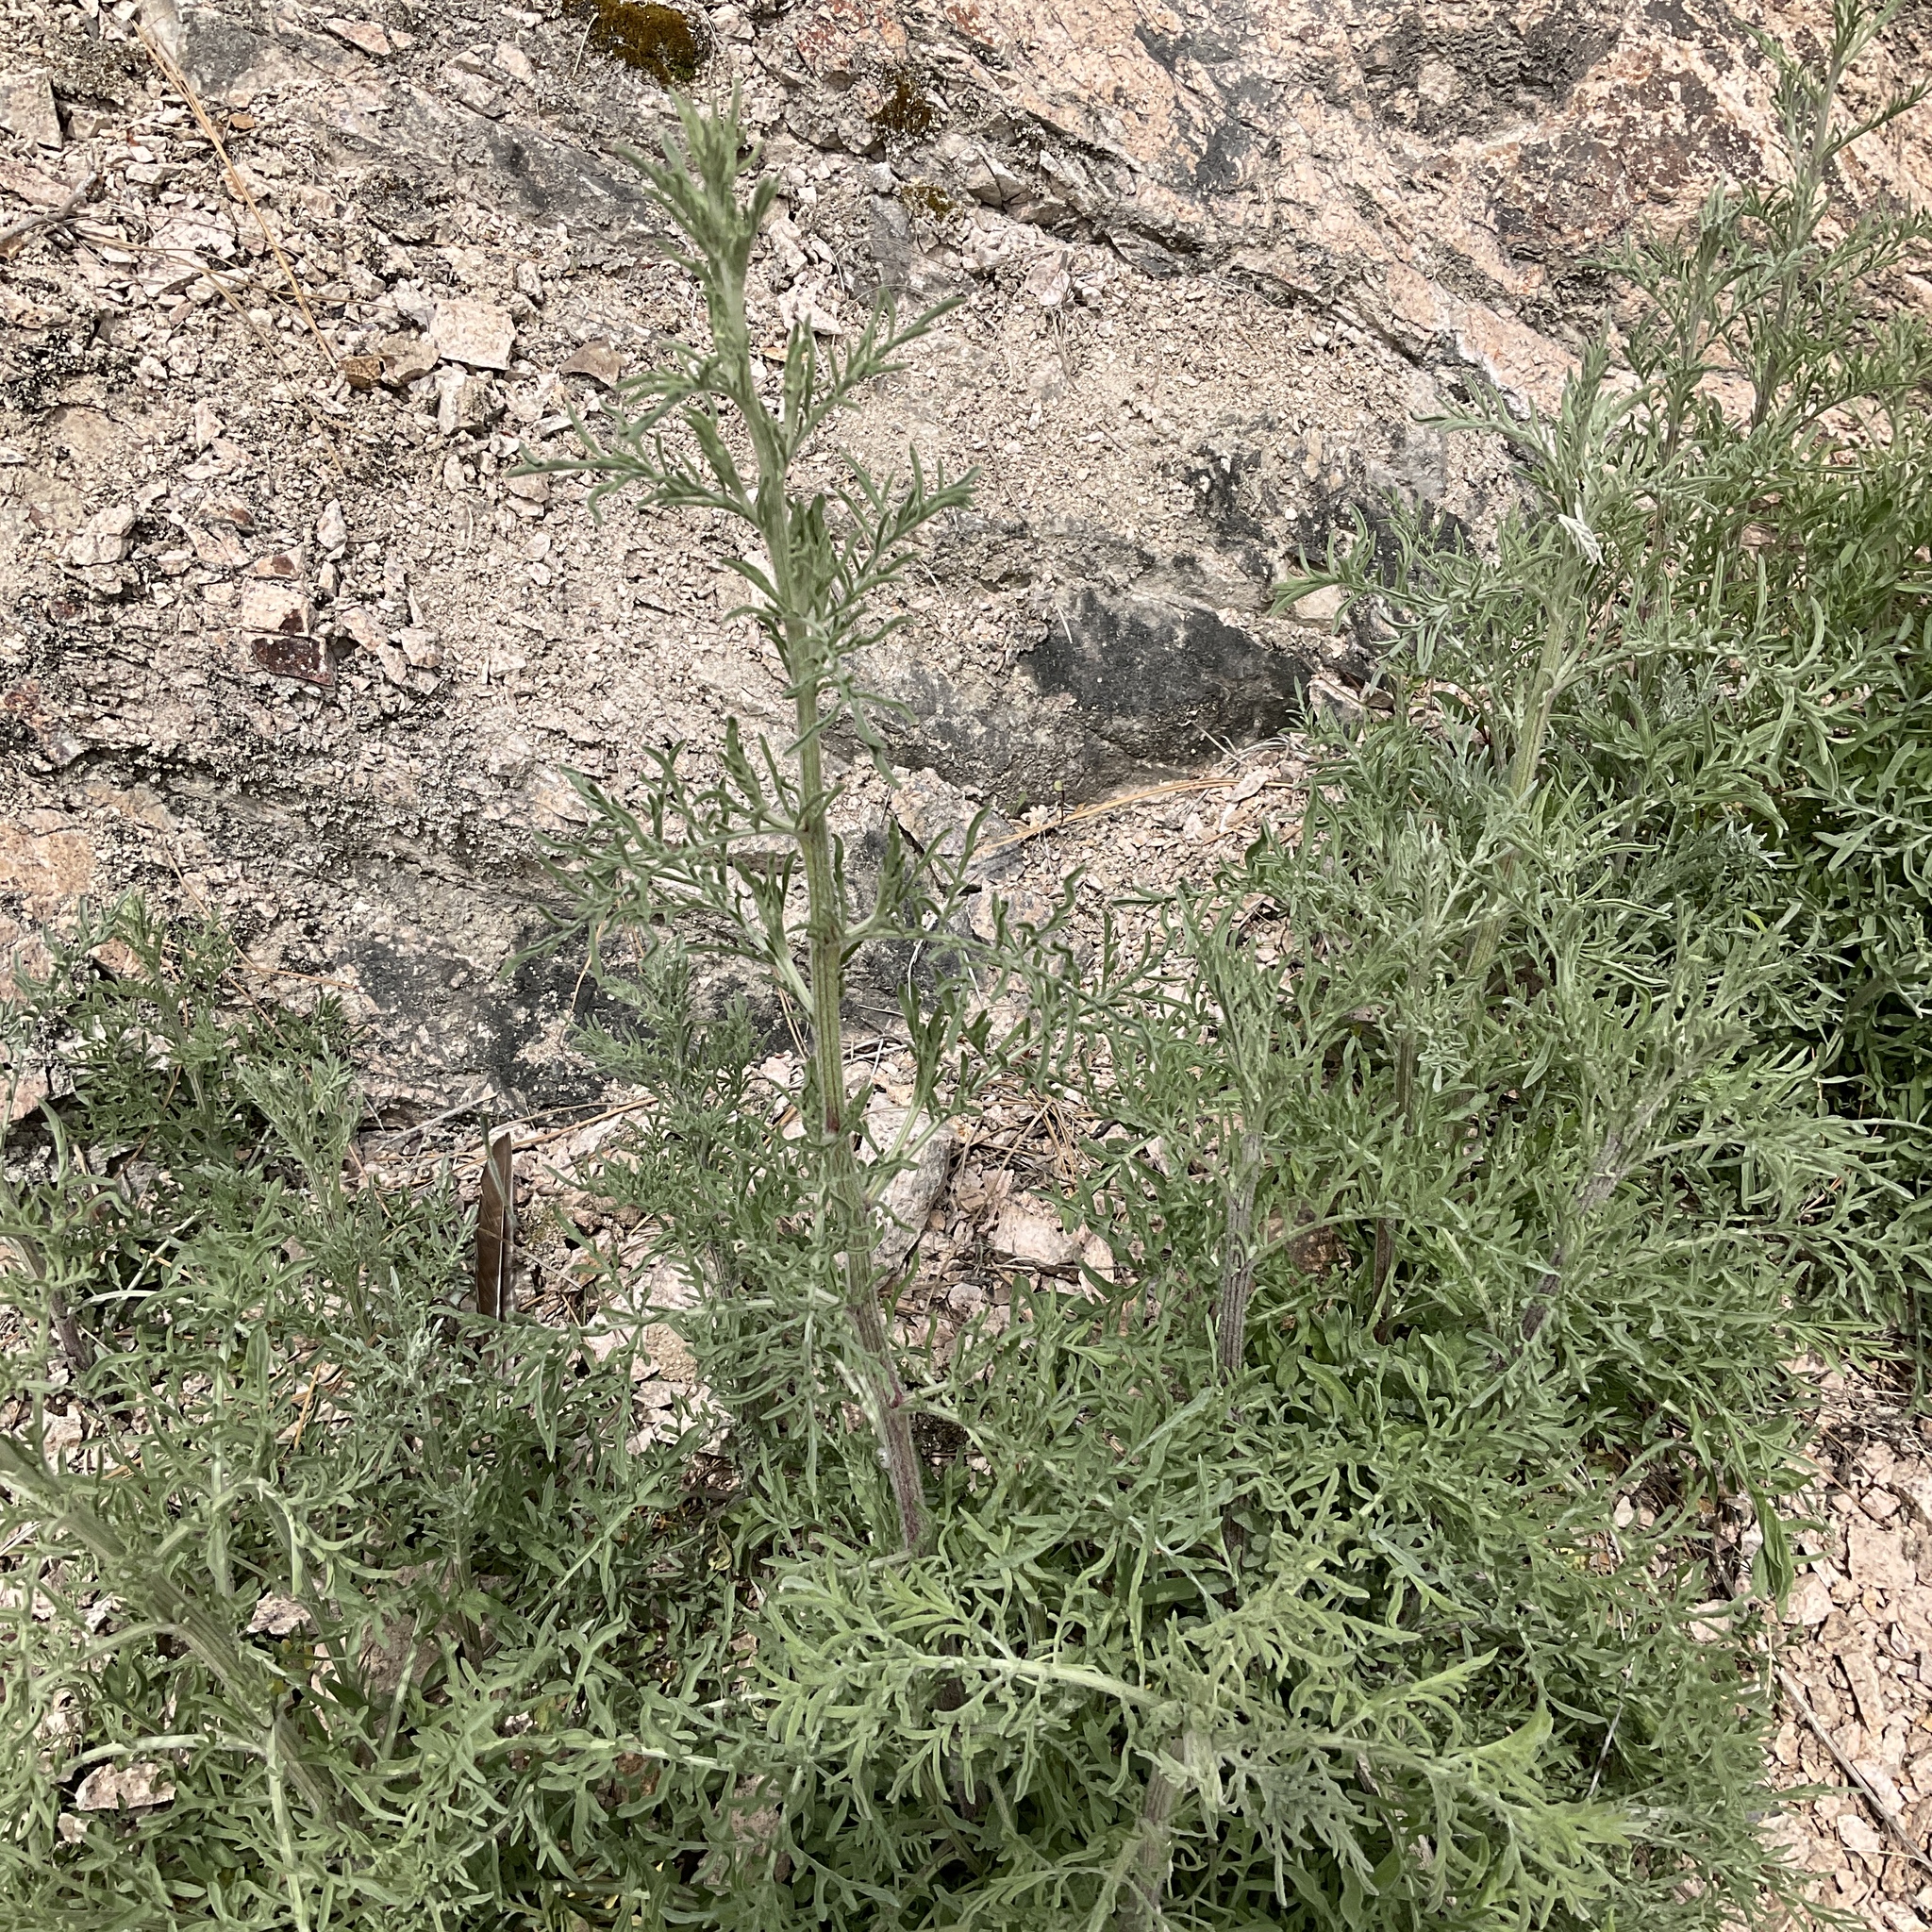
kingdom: Plantae
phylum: Tracheophyta
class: Magnoliopsida
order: Asterales
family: Asteraceae
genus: Centaurea
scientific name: Centaurea diffusa
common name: Diffuse knapweed
